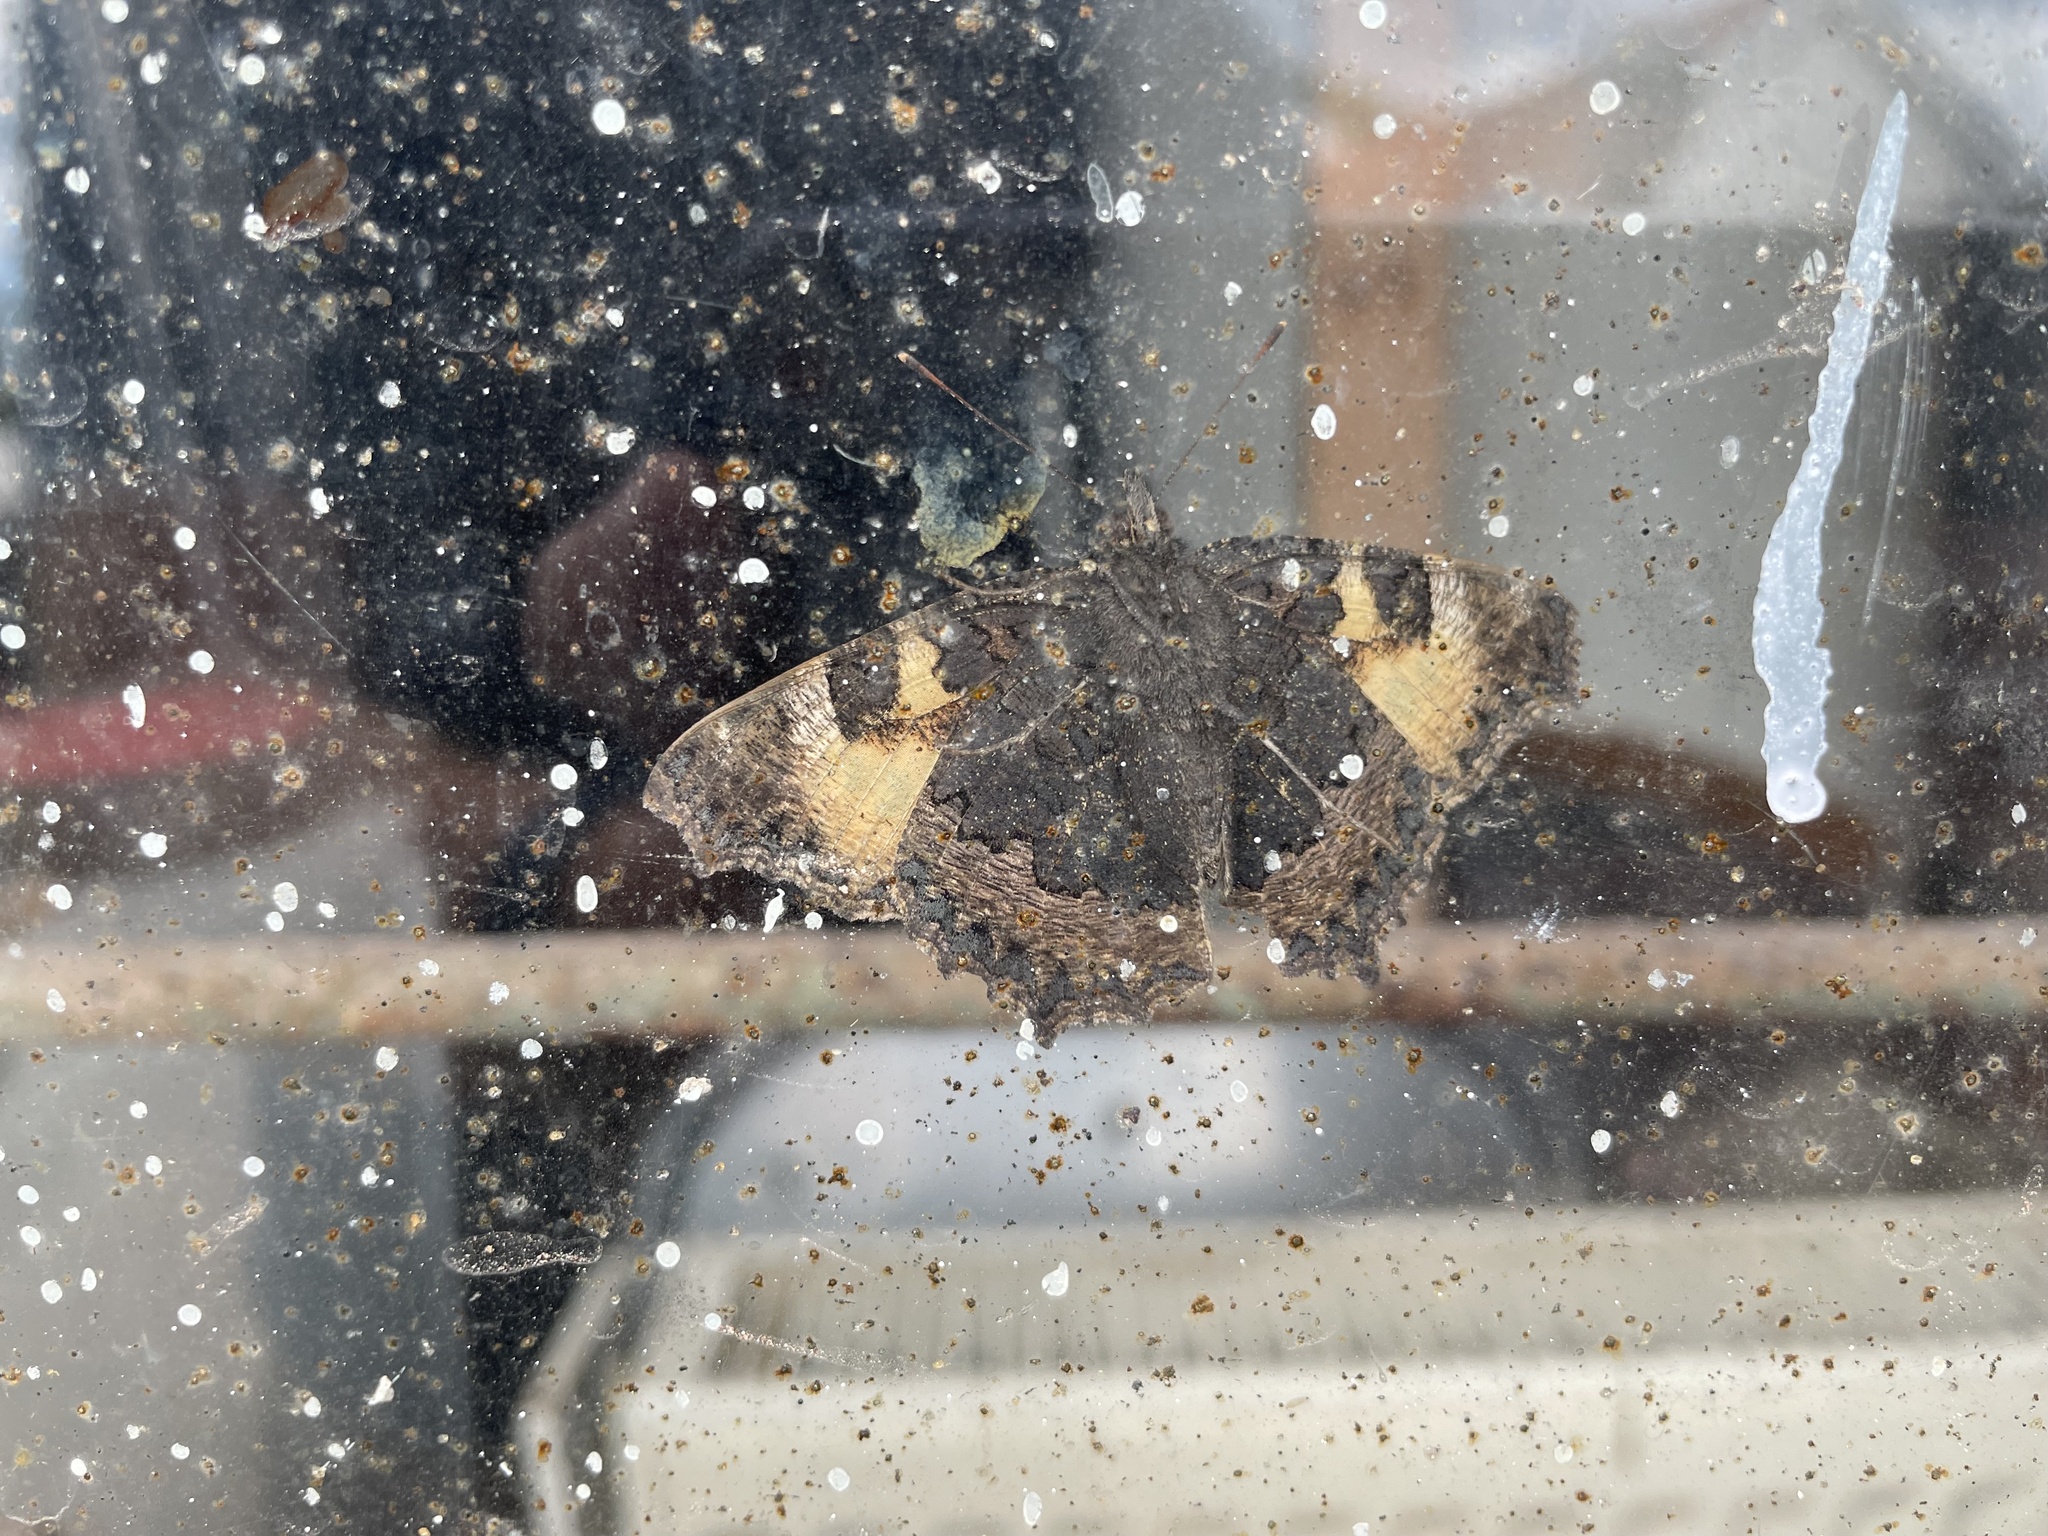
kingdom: Animalia
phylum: Arthropoda
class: Insecta
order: Lepidoptera
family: Nymphalidae
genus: Aglais
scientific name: Aglais urticae
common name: Small tortoiseshell
